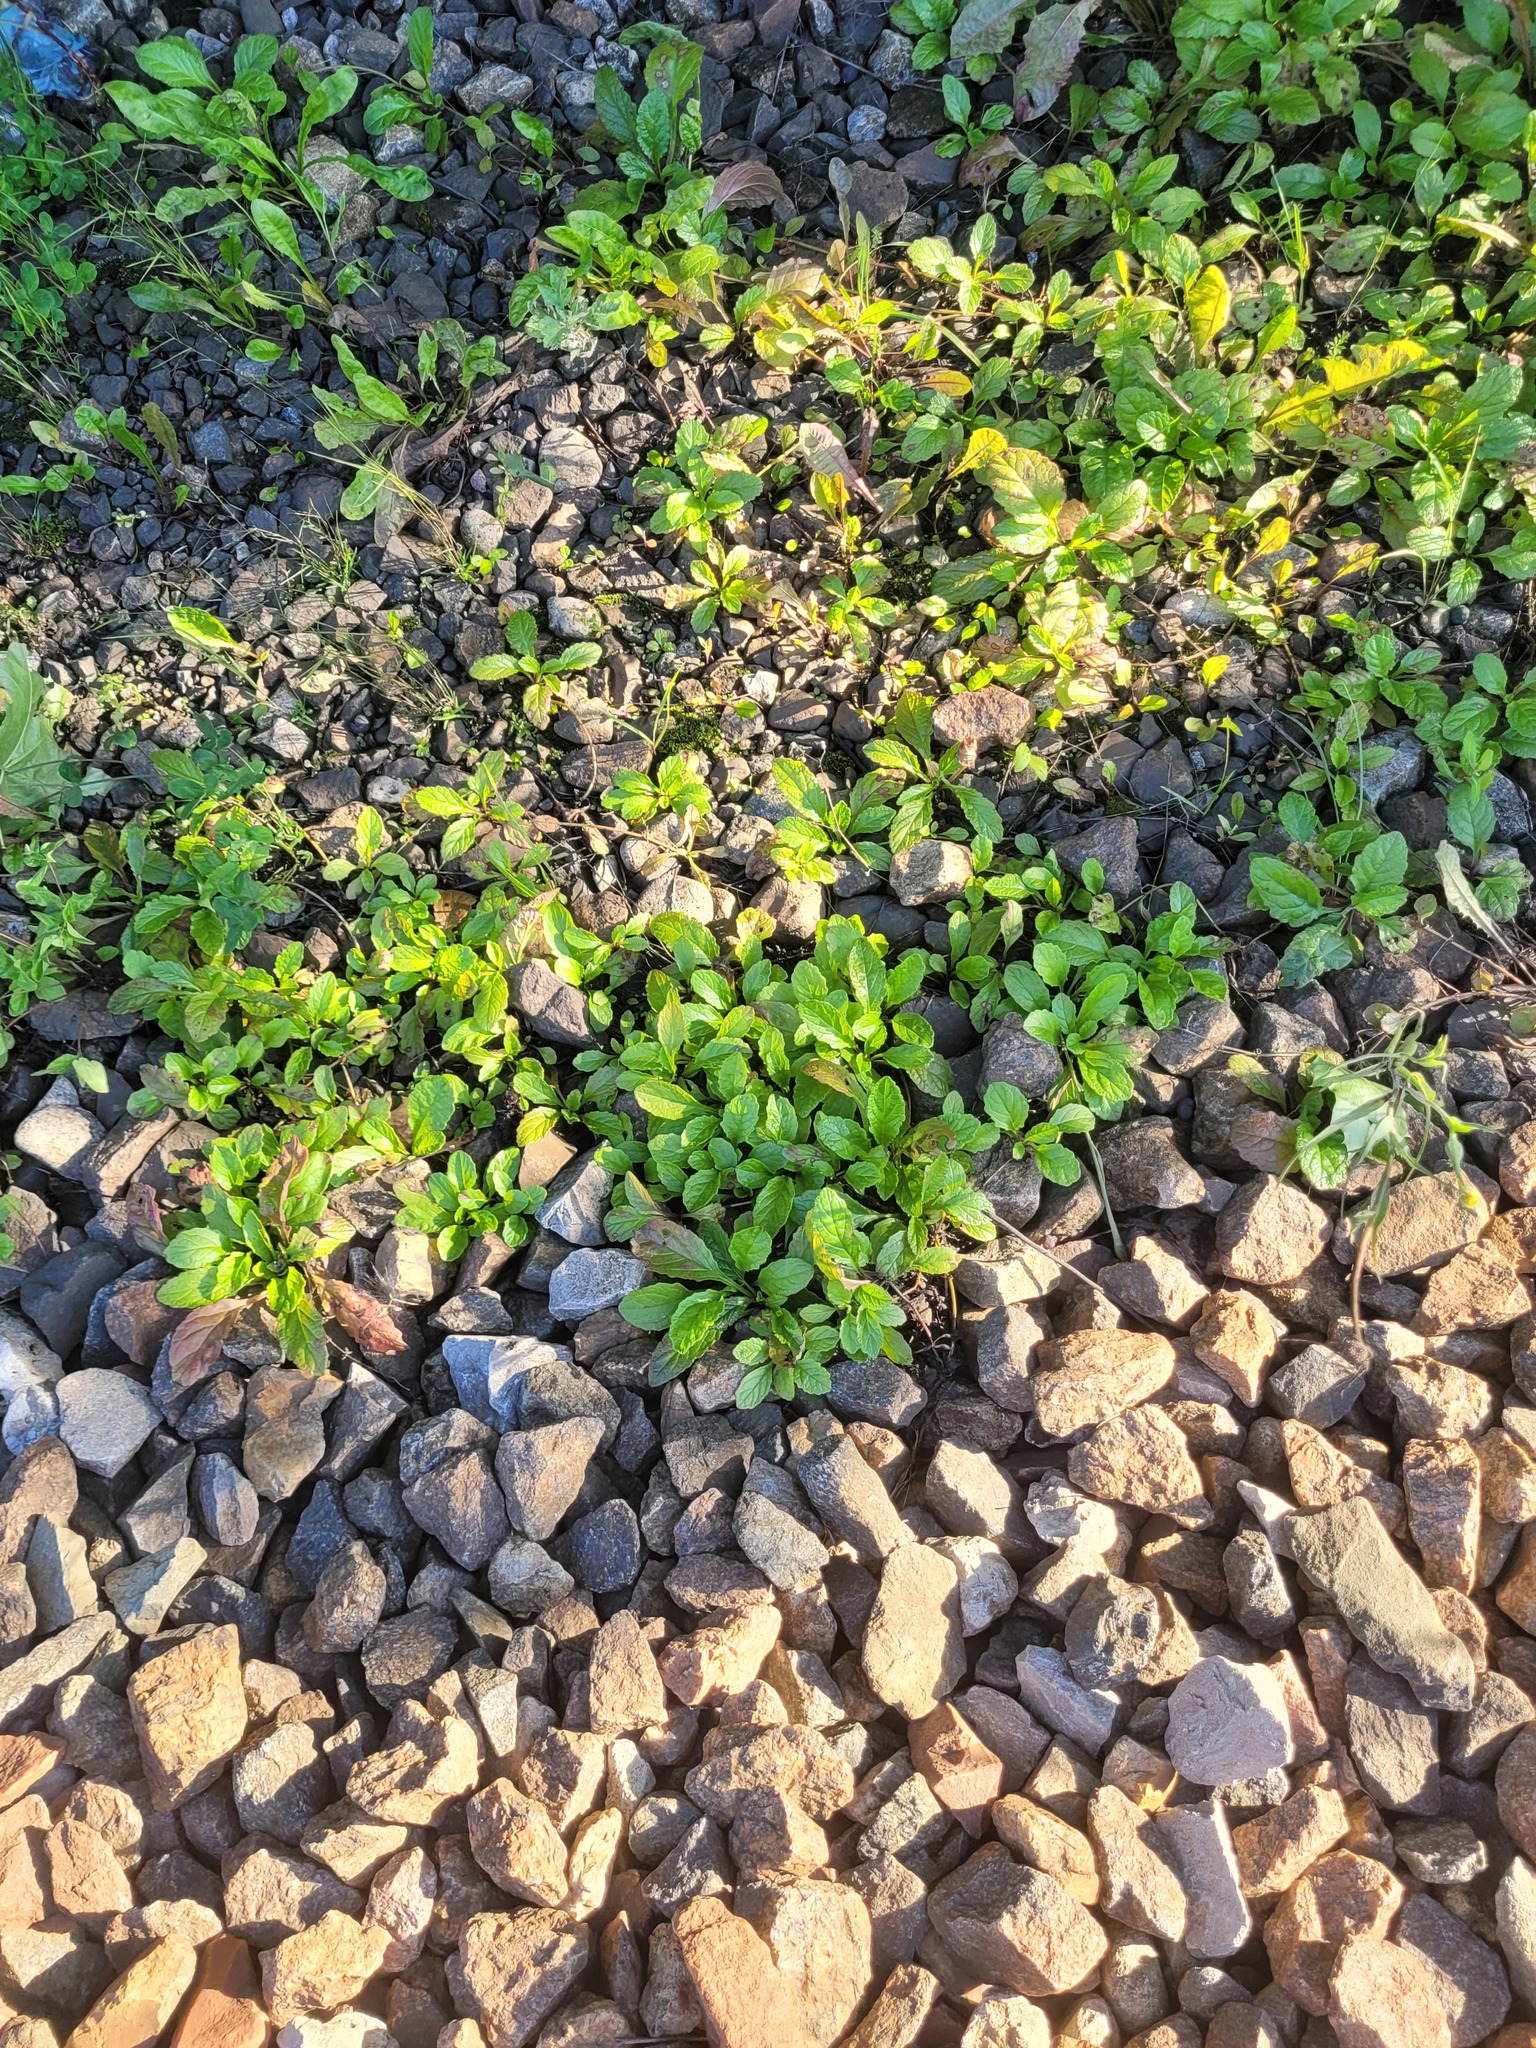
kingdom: Plantae
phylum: Tracheophyta
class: Magnoliopsida
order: Lamiales
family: Lamiaceae
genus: Ajuga
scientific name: Ajuga reptans
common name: Bugle
